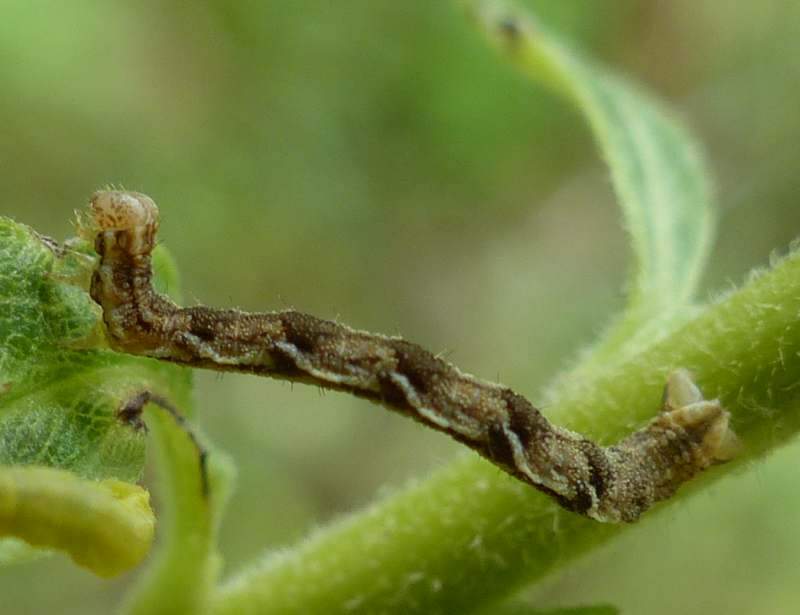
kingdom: Animalia
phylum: Arthropoda
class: Insecta
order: Lepidoptera
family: Geometridae
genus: Eupithecia
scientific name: Eupithecia subfuscata
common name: Grey pug
